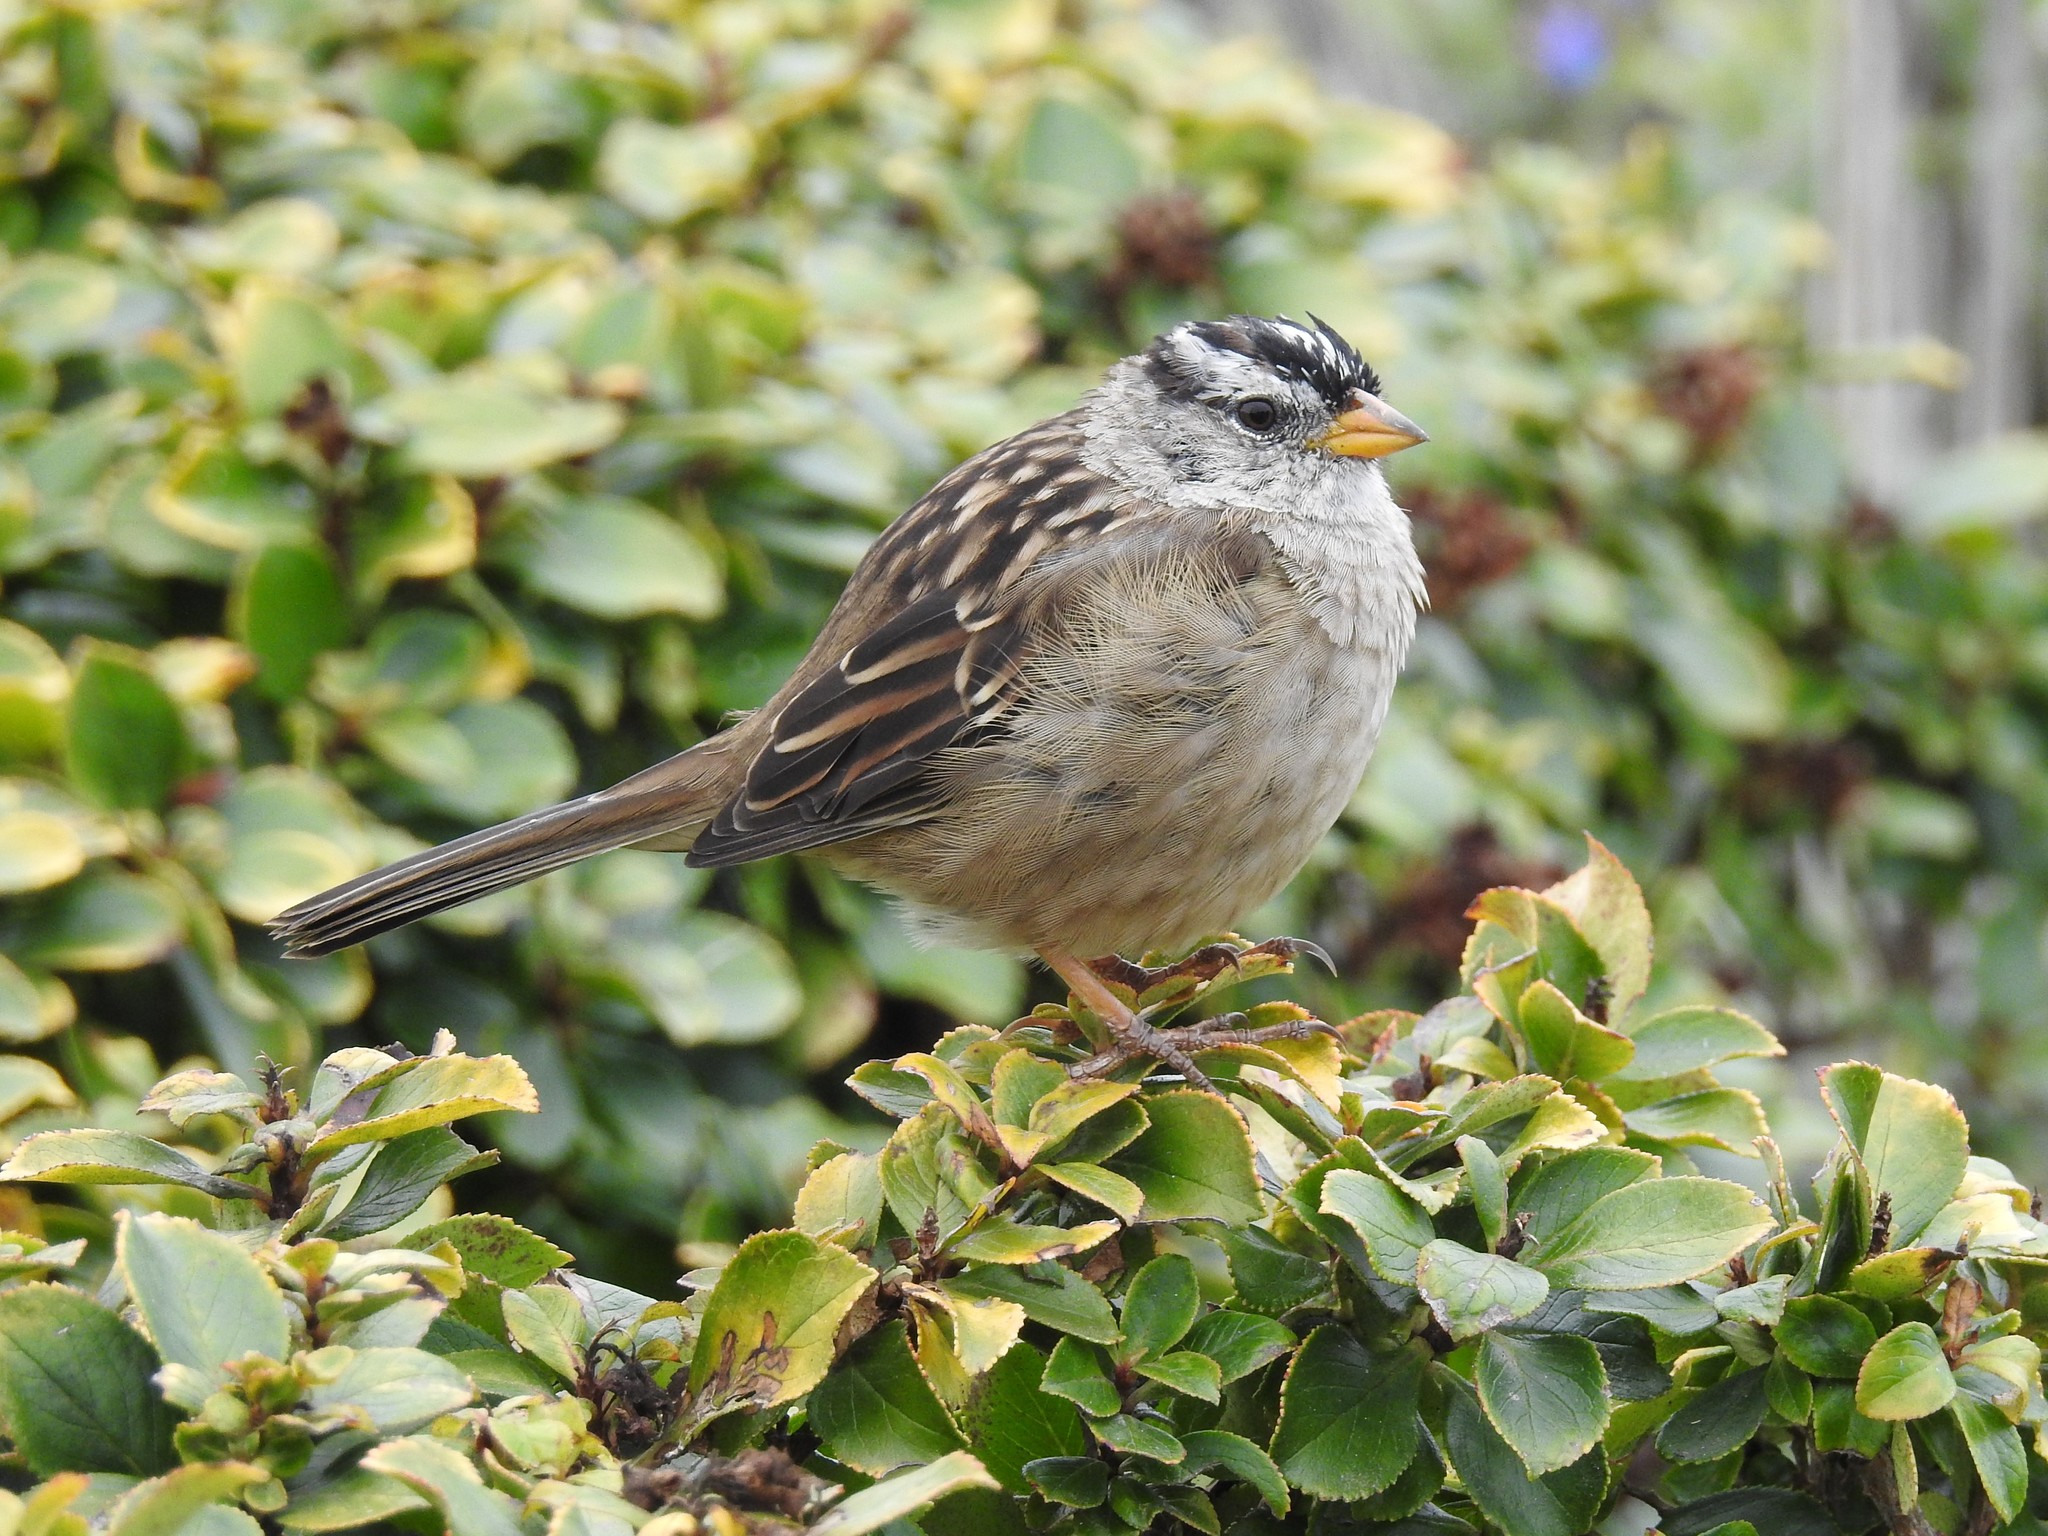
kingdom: Animalia
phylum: Chordata
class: Aves
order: Passeriformes
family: Passerellidae
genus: Zonotrichia
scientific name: Zonotrichia leucophrys
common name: White-crowned sparrow
